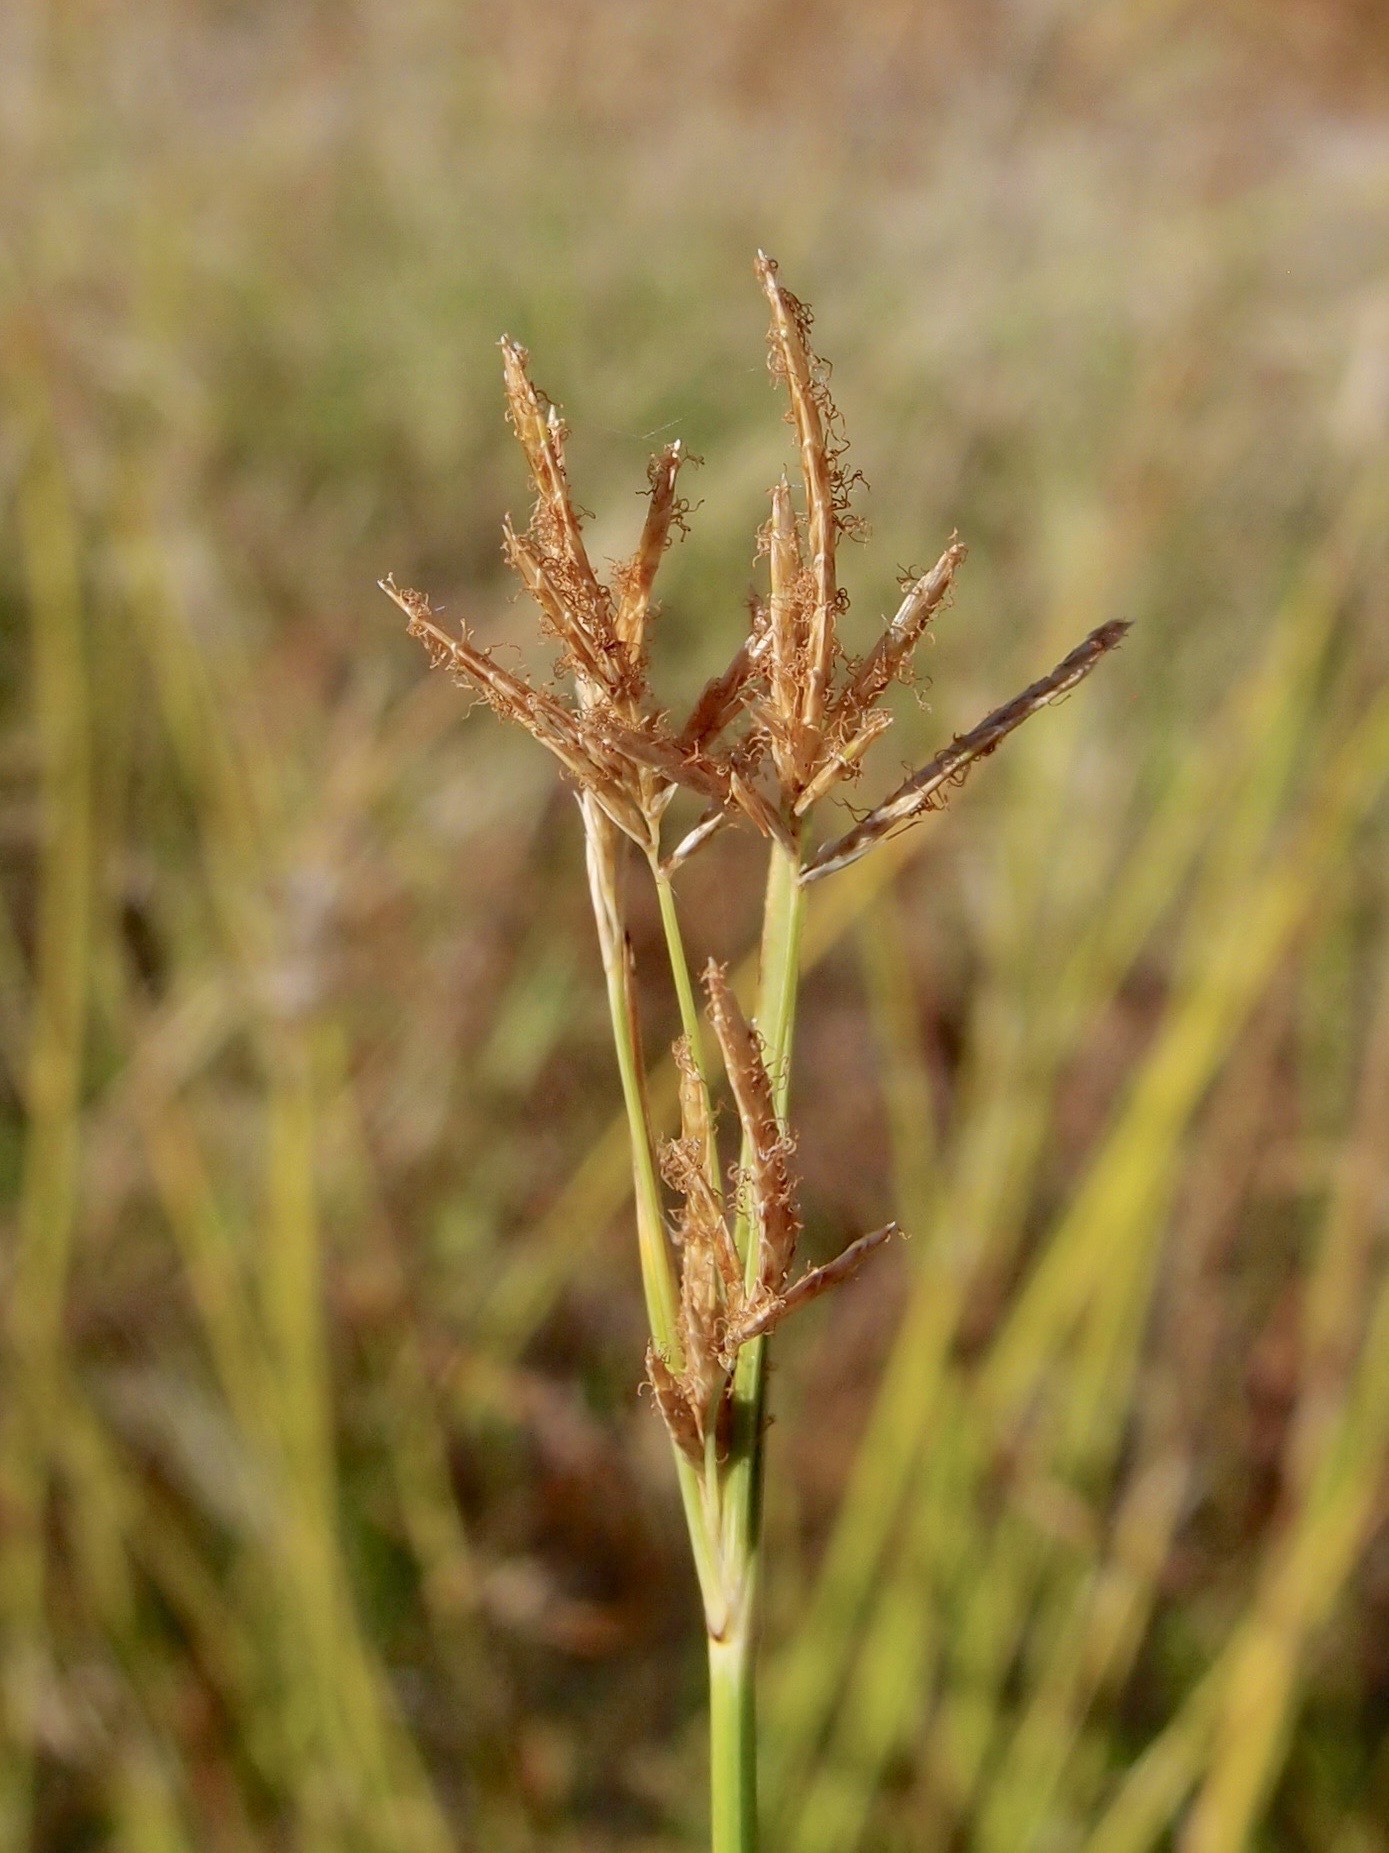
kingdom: Plantae
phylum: Tracheophyta
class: Liliopsida
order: Poales
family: Cyperaceae
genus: Cyperus
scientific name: Cyperus articulatus
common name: Jointed flatsedge
